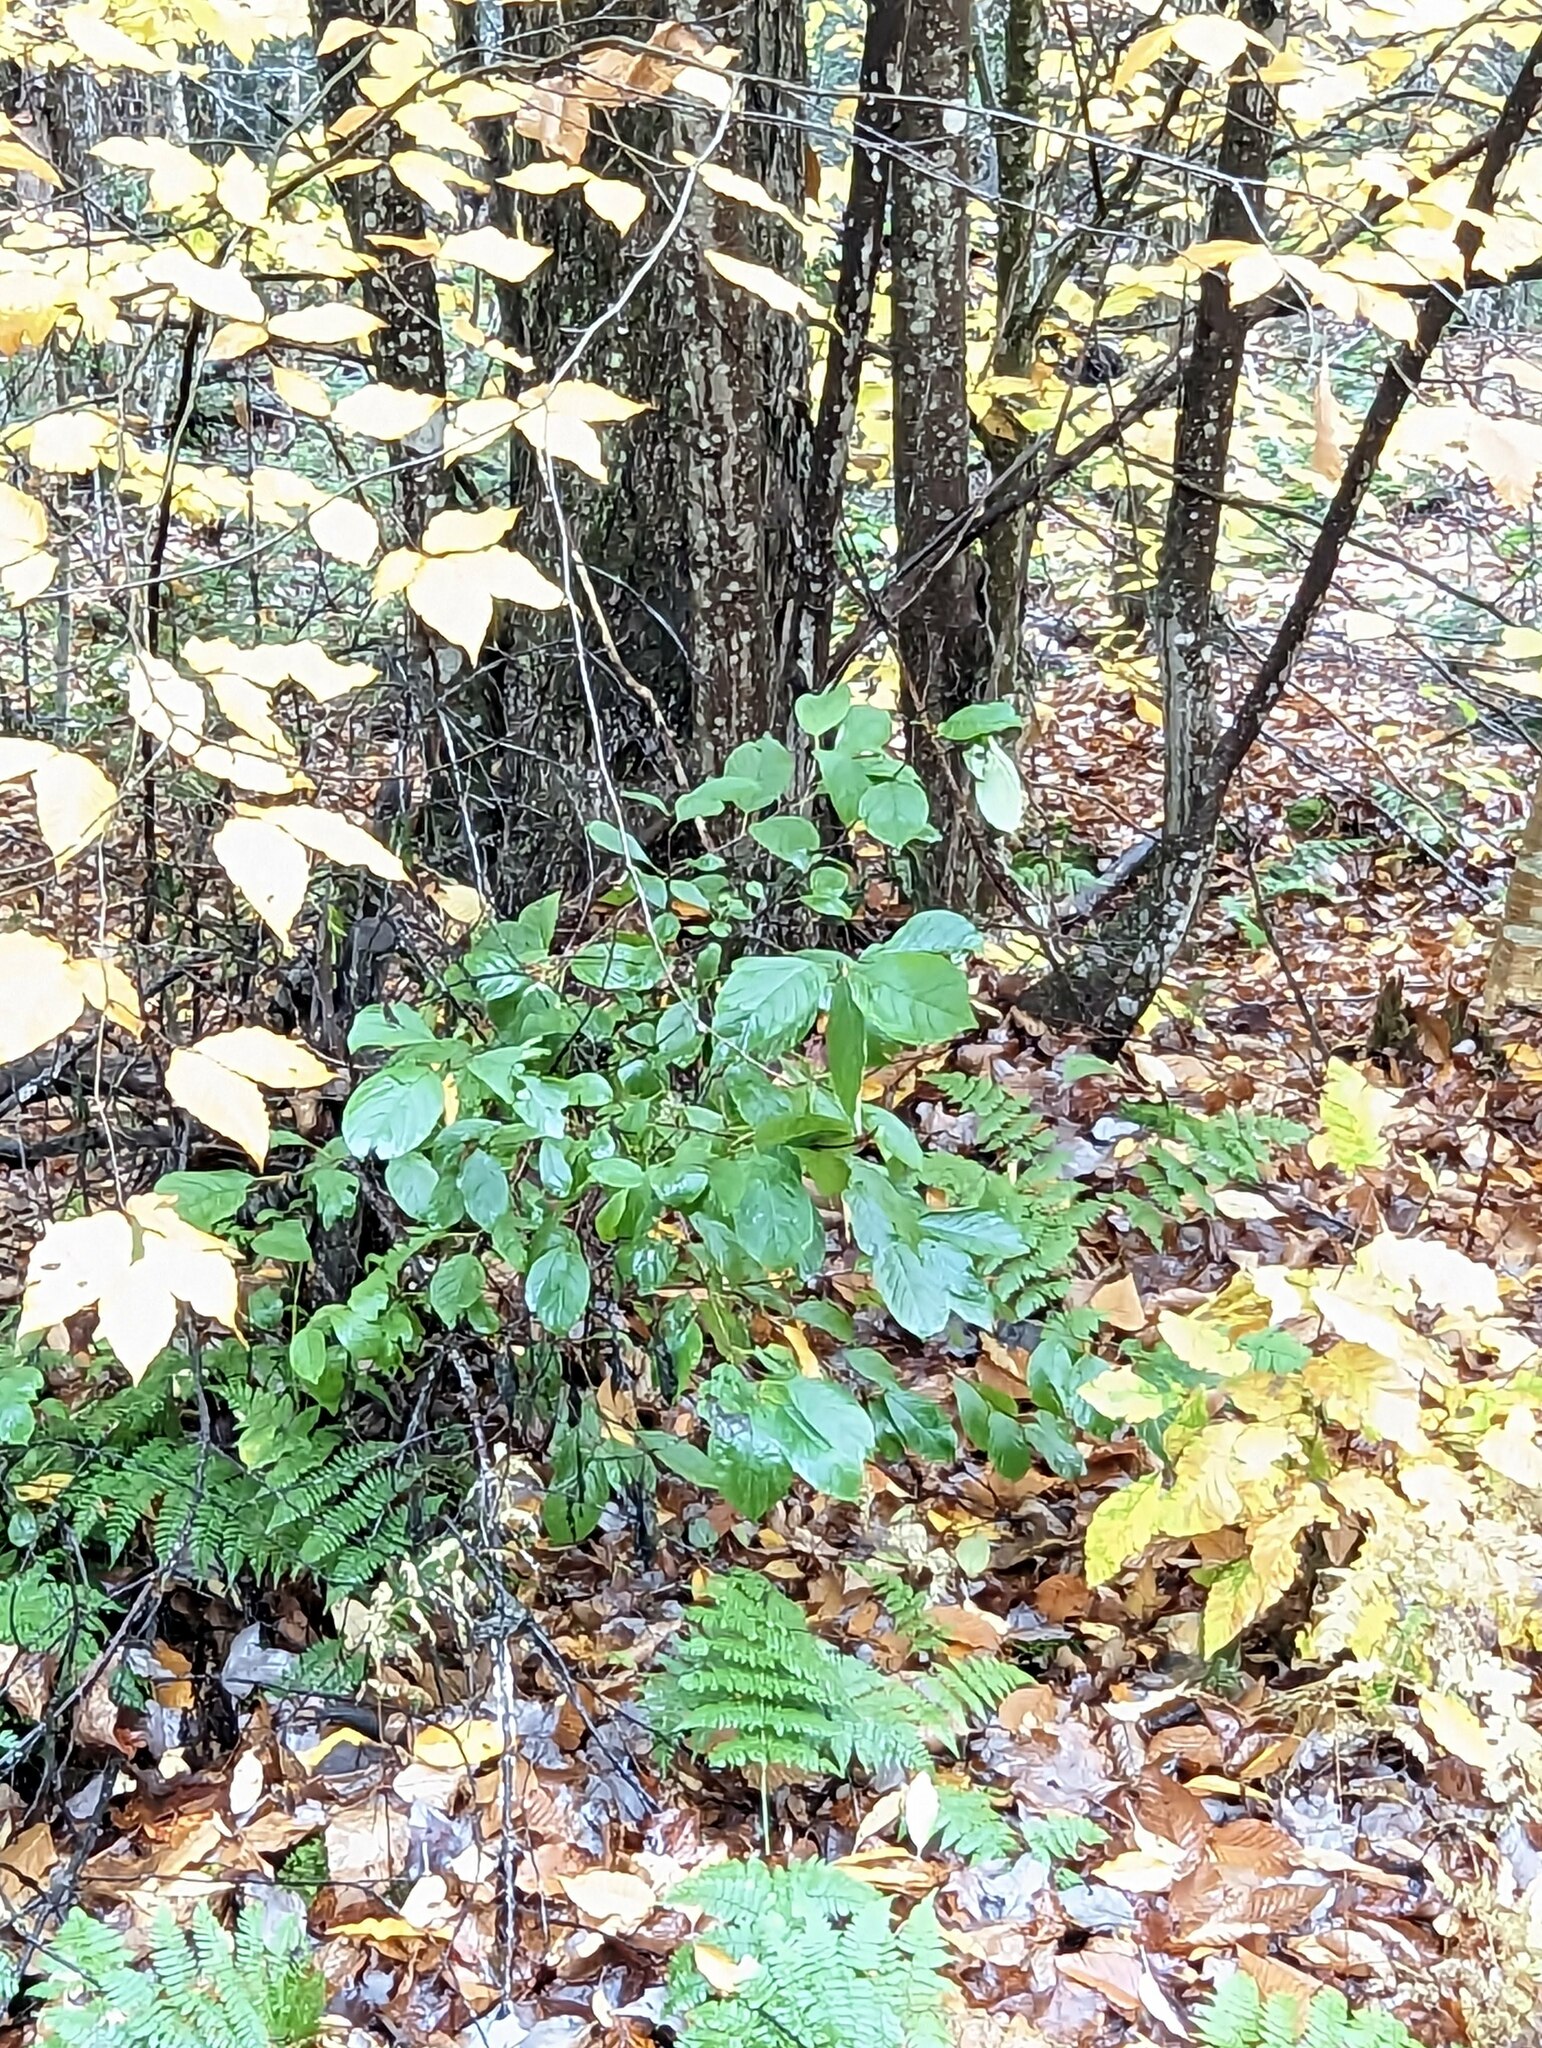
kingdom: Plantae
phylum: Tracheophyta
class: Magnoliopsida
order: Rosales
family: Rhamnaceae
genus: Frangula
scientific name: Frangula alnus
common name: Alder buckthorn
